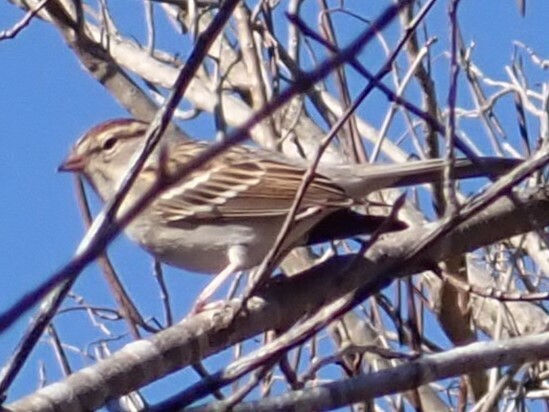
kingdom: Animalia
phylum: Chordata
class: Aves
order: Passeriformes
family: Passerellidae
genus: Spizella
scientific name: Spizella passerina
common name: Chipping sparrow
